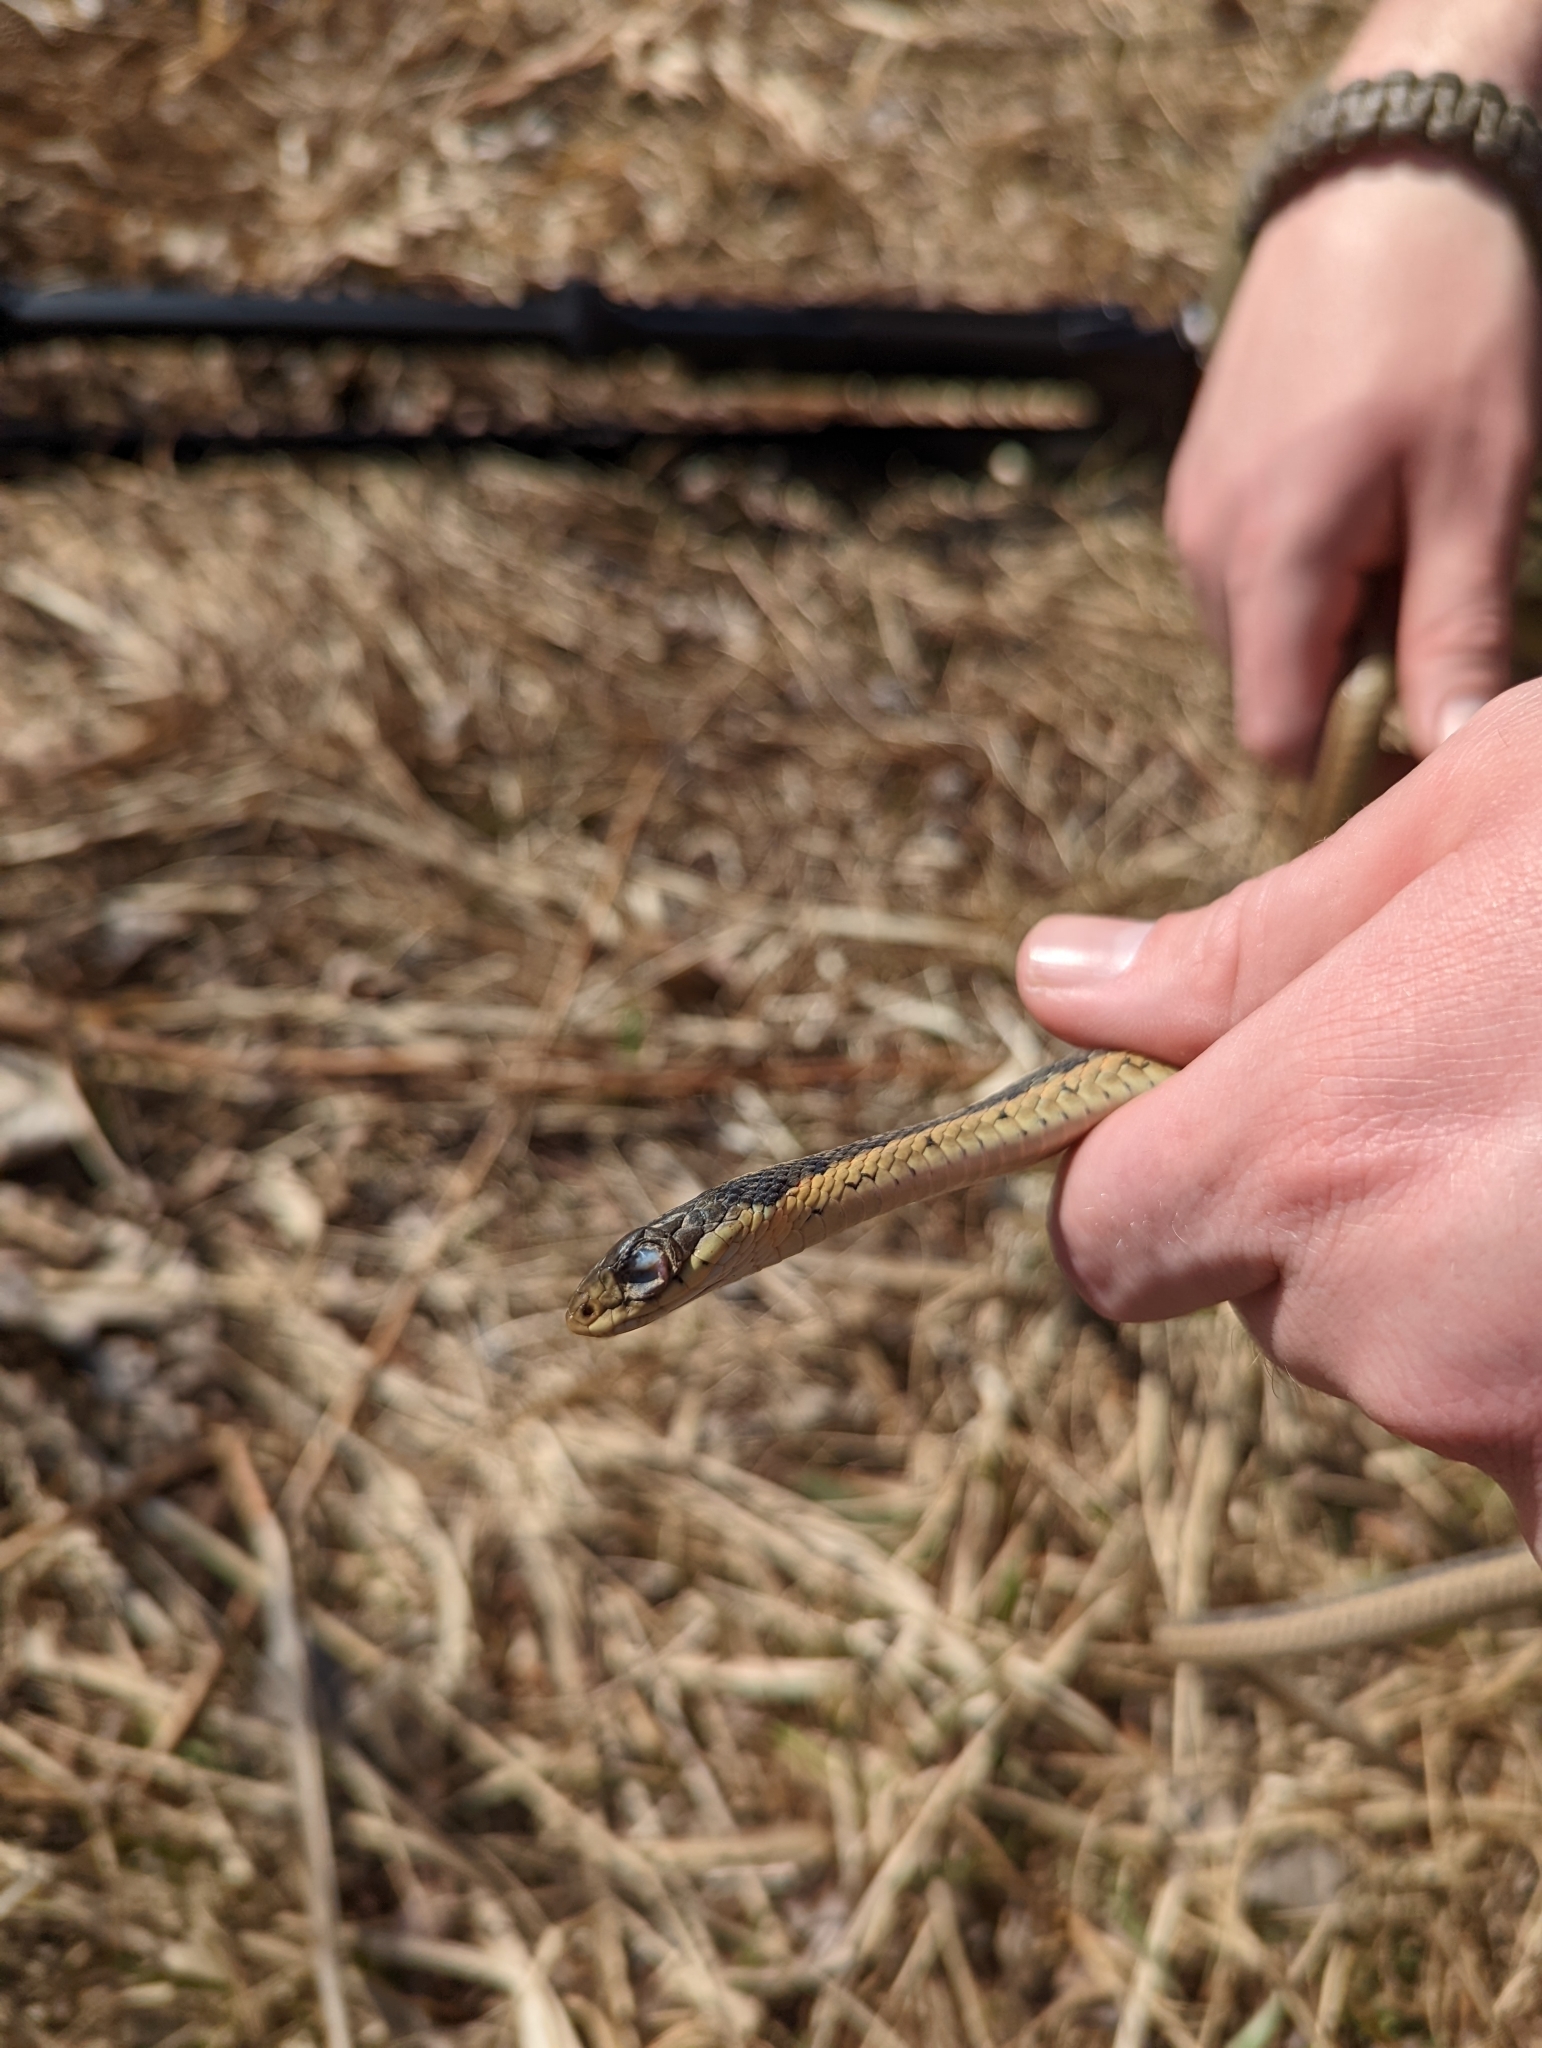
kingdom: Animalia
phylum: Chordata
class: Squamata
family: Colubridae
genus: Thamnophis
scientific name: Thamnophis sirtalis
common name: Common garter snake
